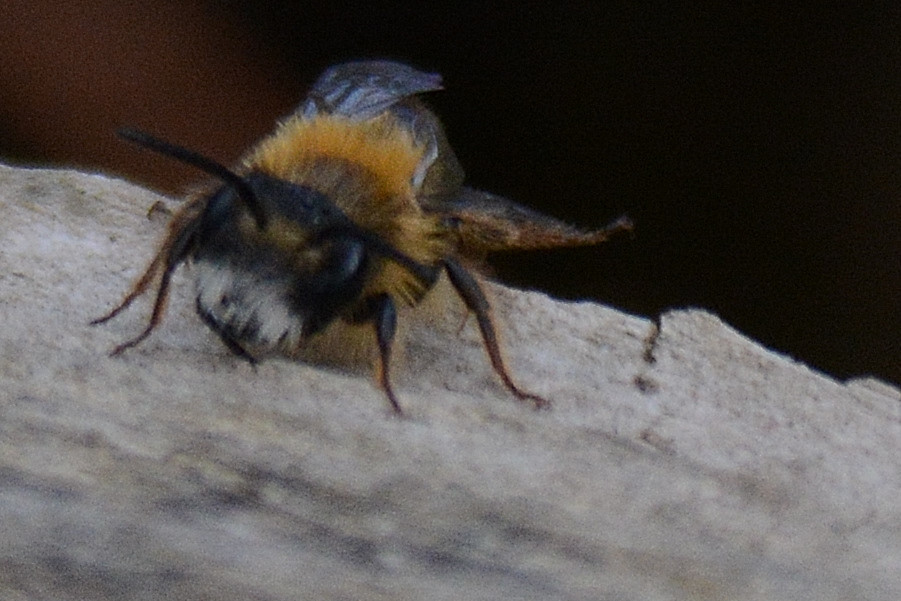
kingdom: Animalia
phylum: Arthropoda
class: Insecta
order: Hymenoptera
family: Andrenidae
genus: Andrena
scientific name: Andrena fulva
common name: Tawny mining bee
